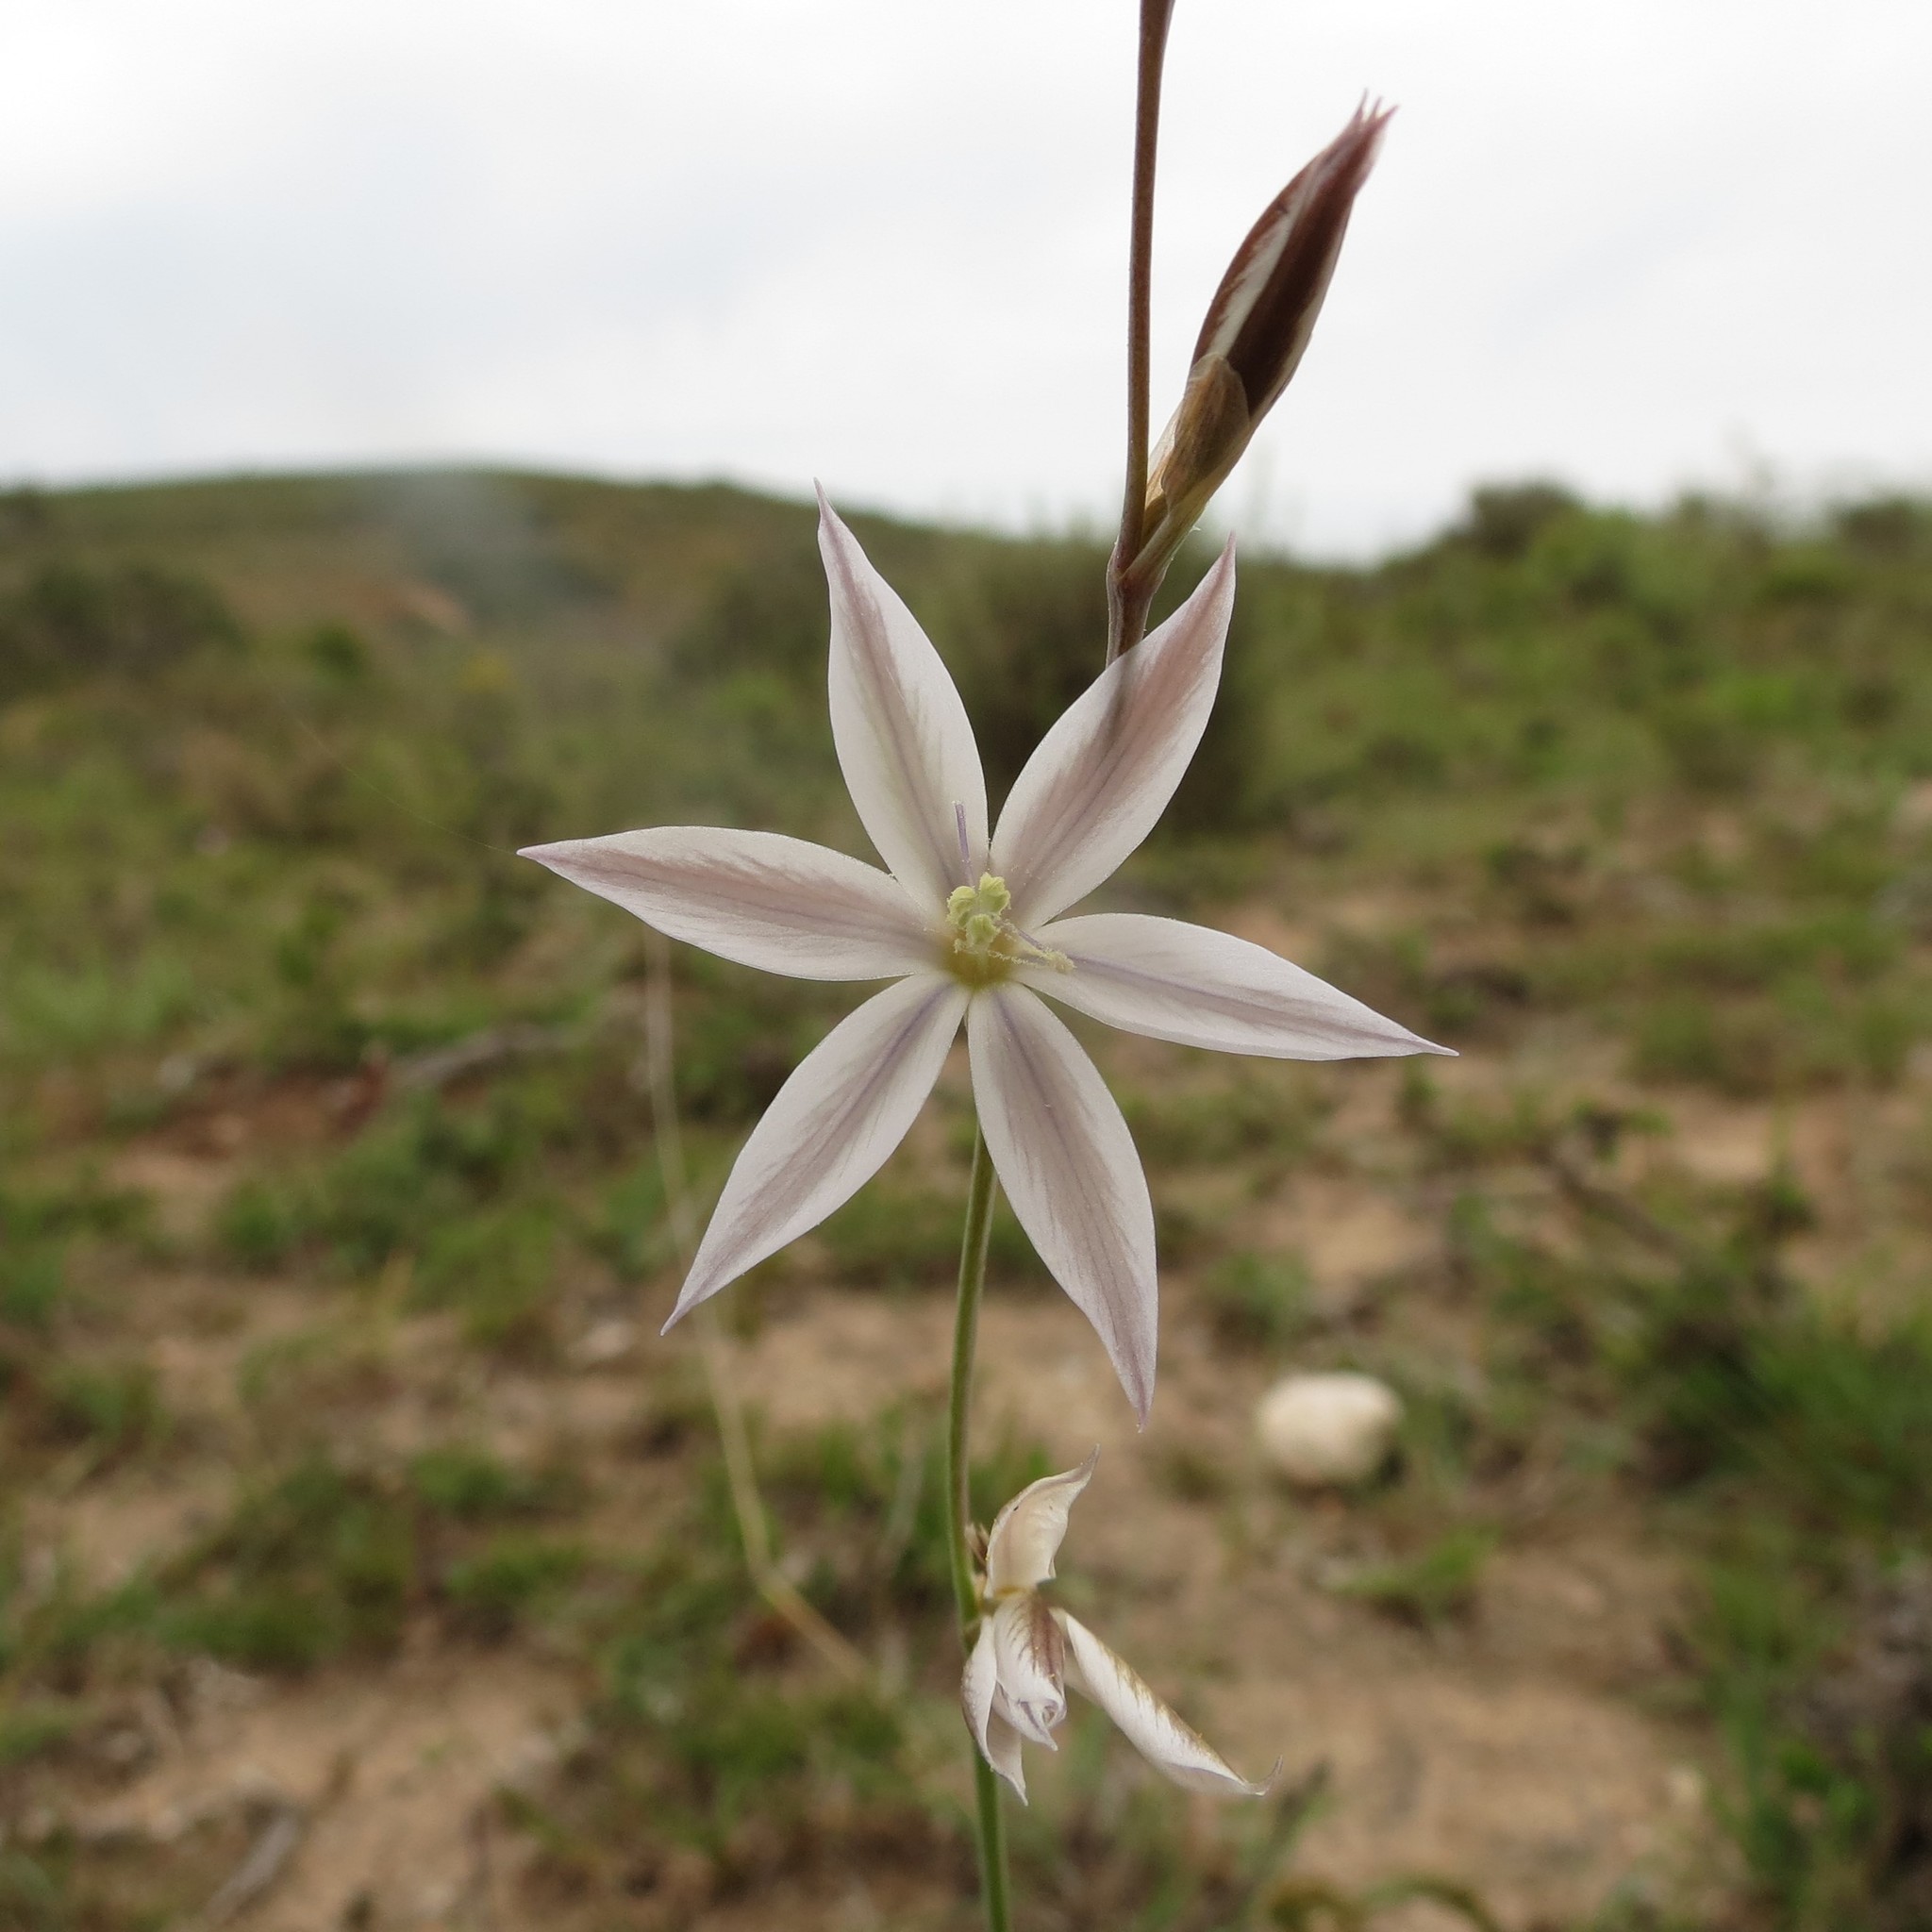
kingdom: Plantae
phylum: Tracheophyta
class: Liliopsida
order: Asparagales
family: Iridaceae
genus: Gladiolus
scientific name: Gladiolus stellatus
